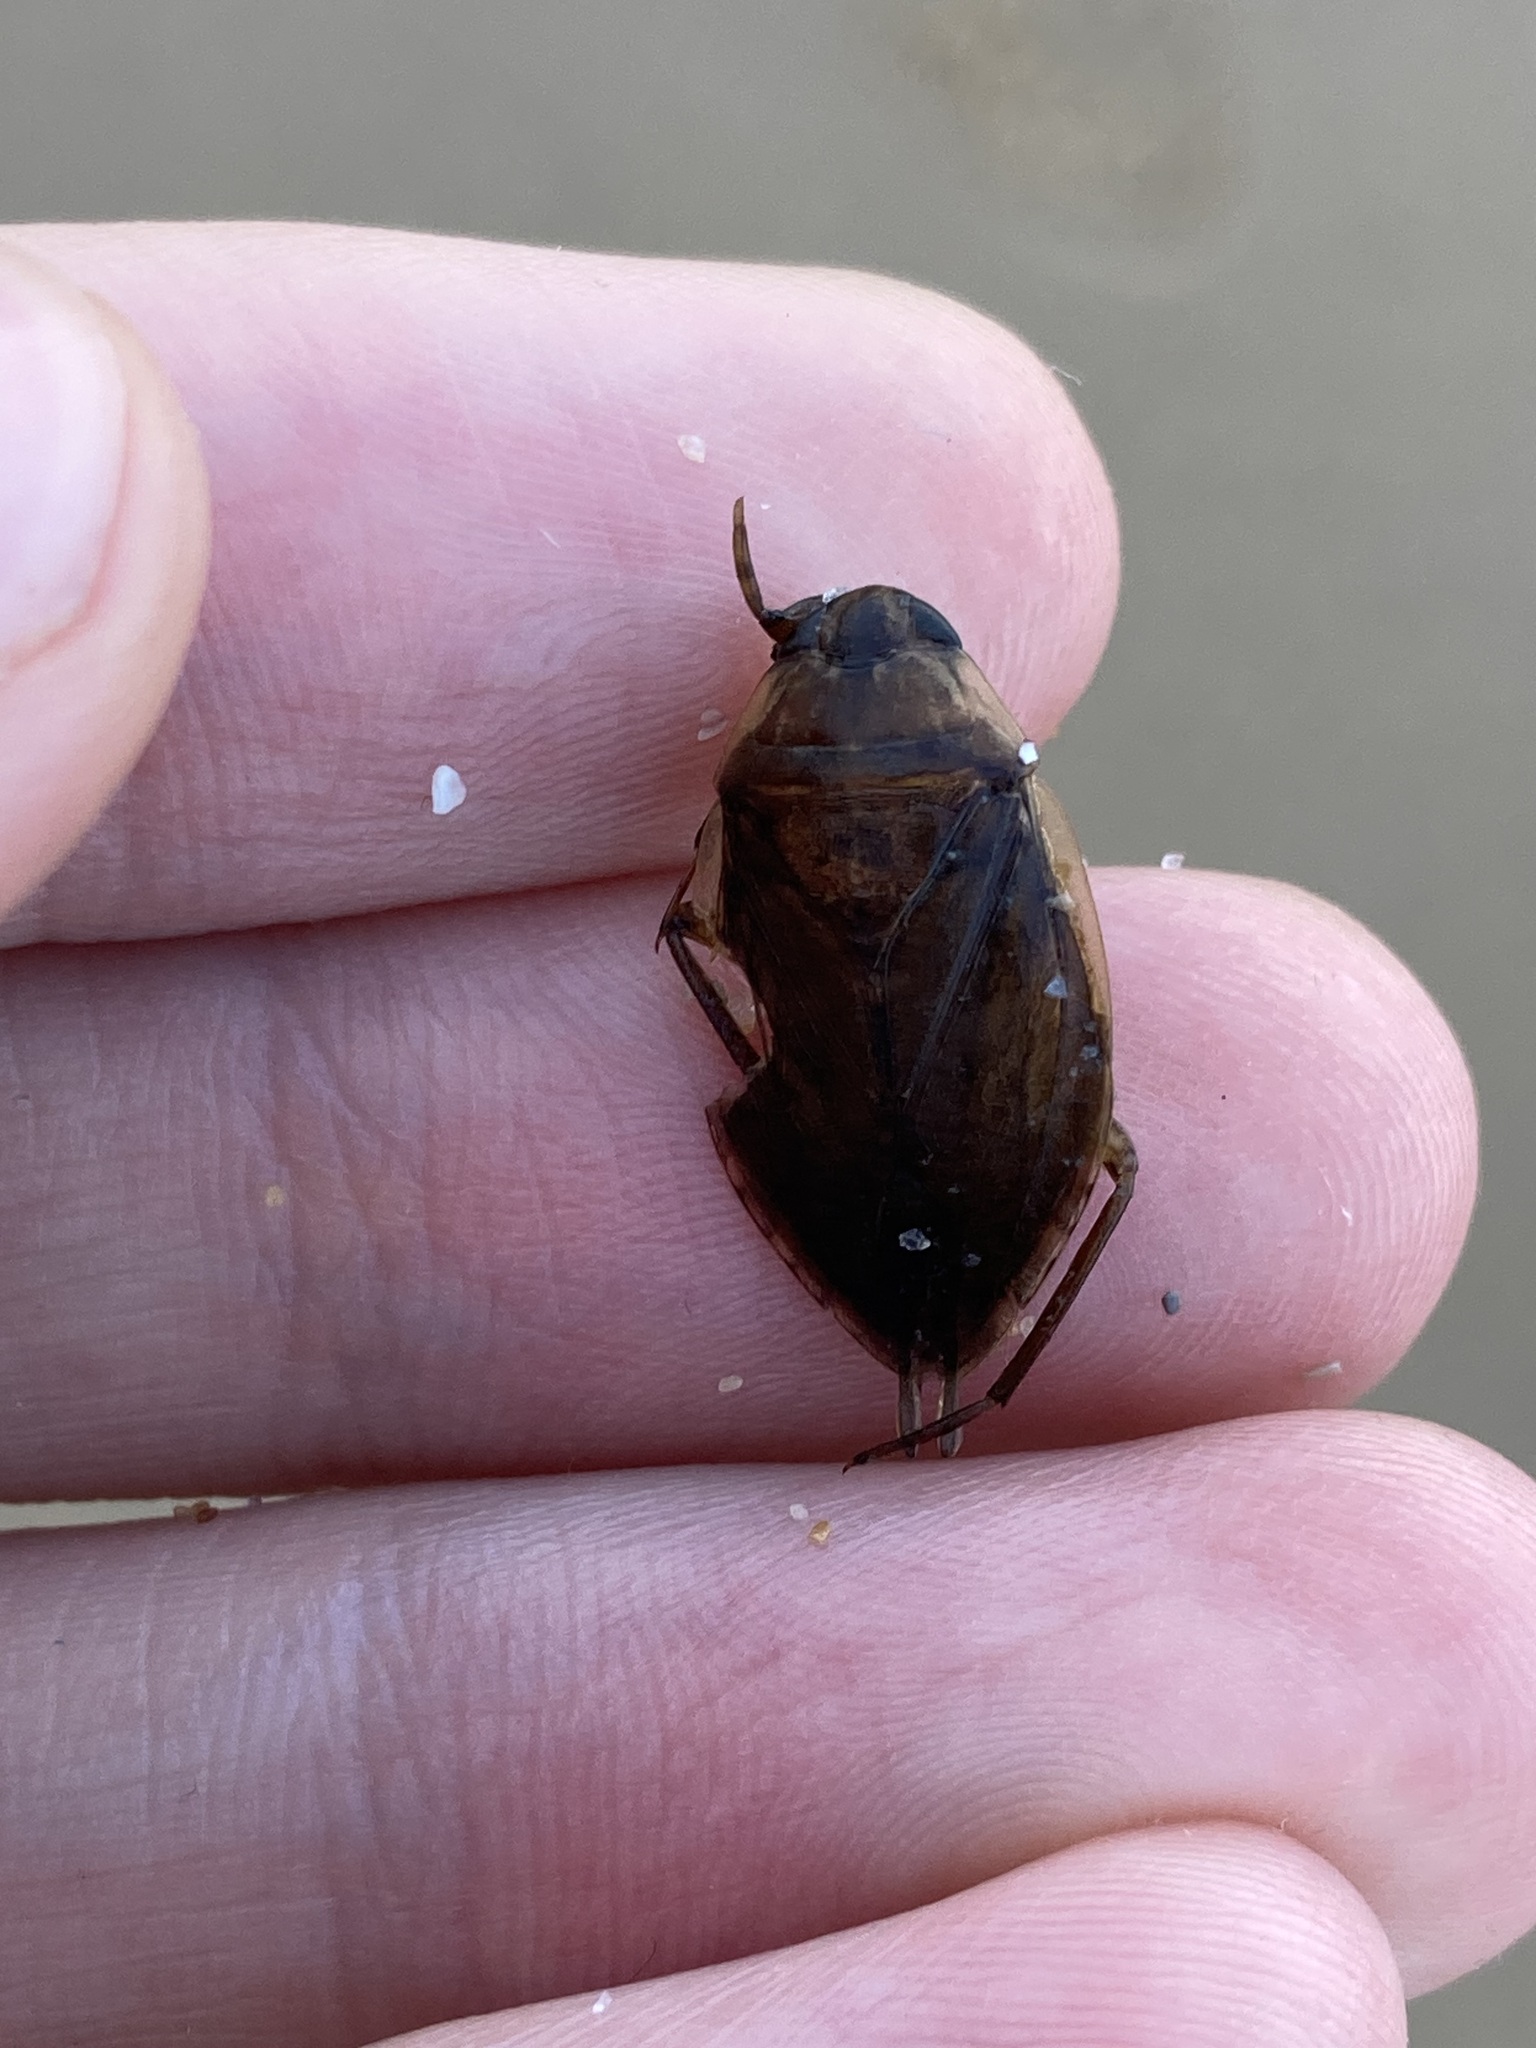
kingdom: Animalia
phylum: Arthropoda
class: Insecta
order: Hemiptera
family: Belostomatidae
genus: Diplonychus
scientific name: Diplonychus eques
